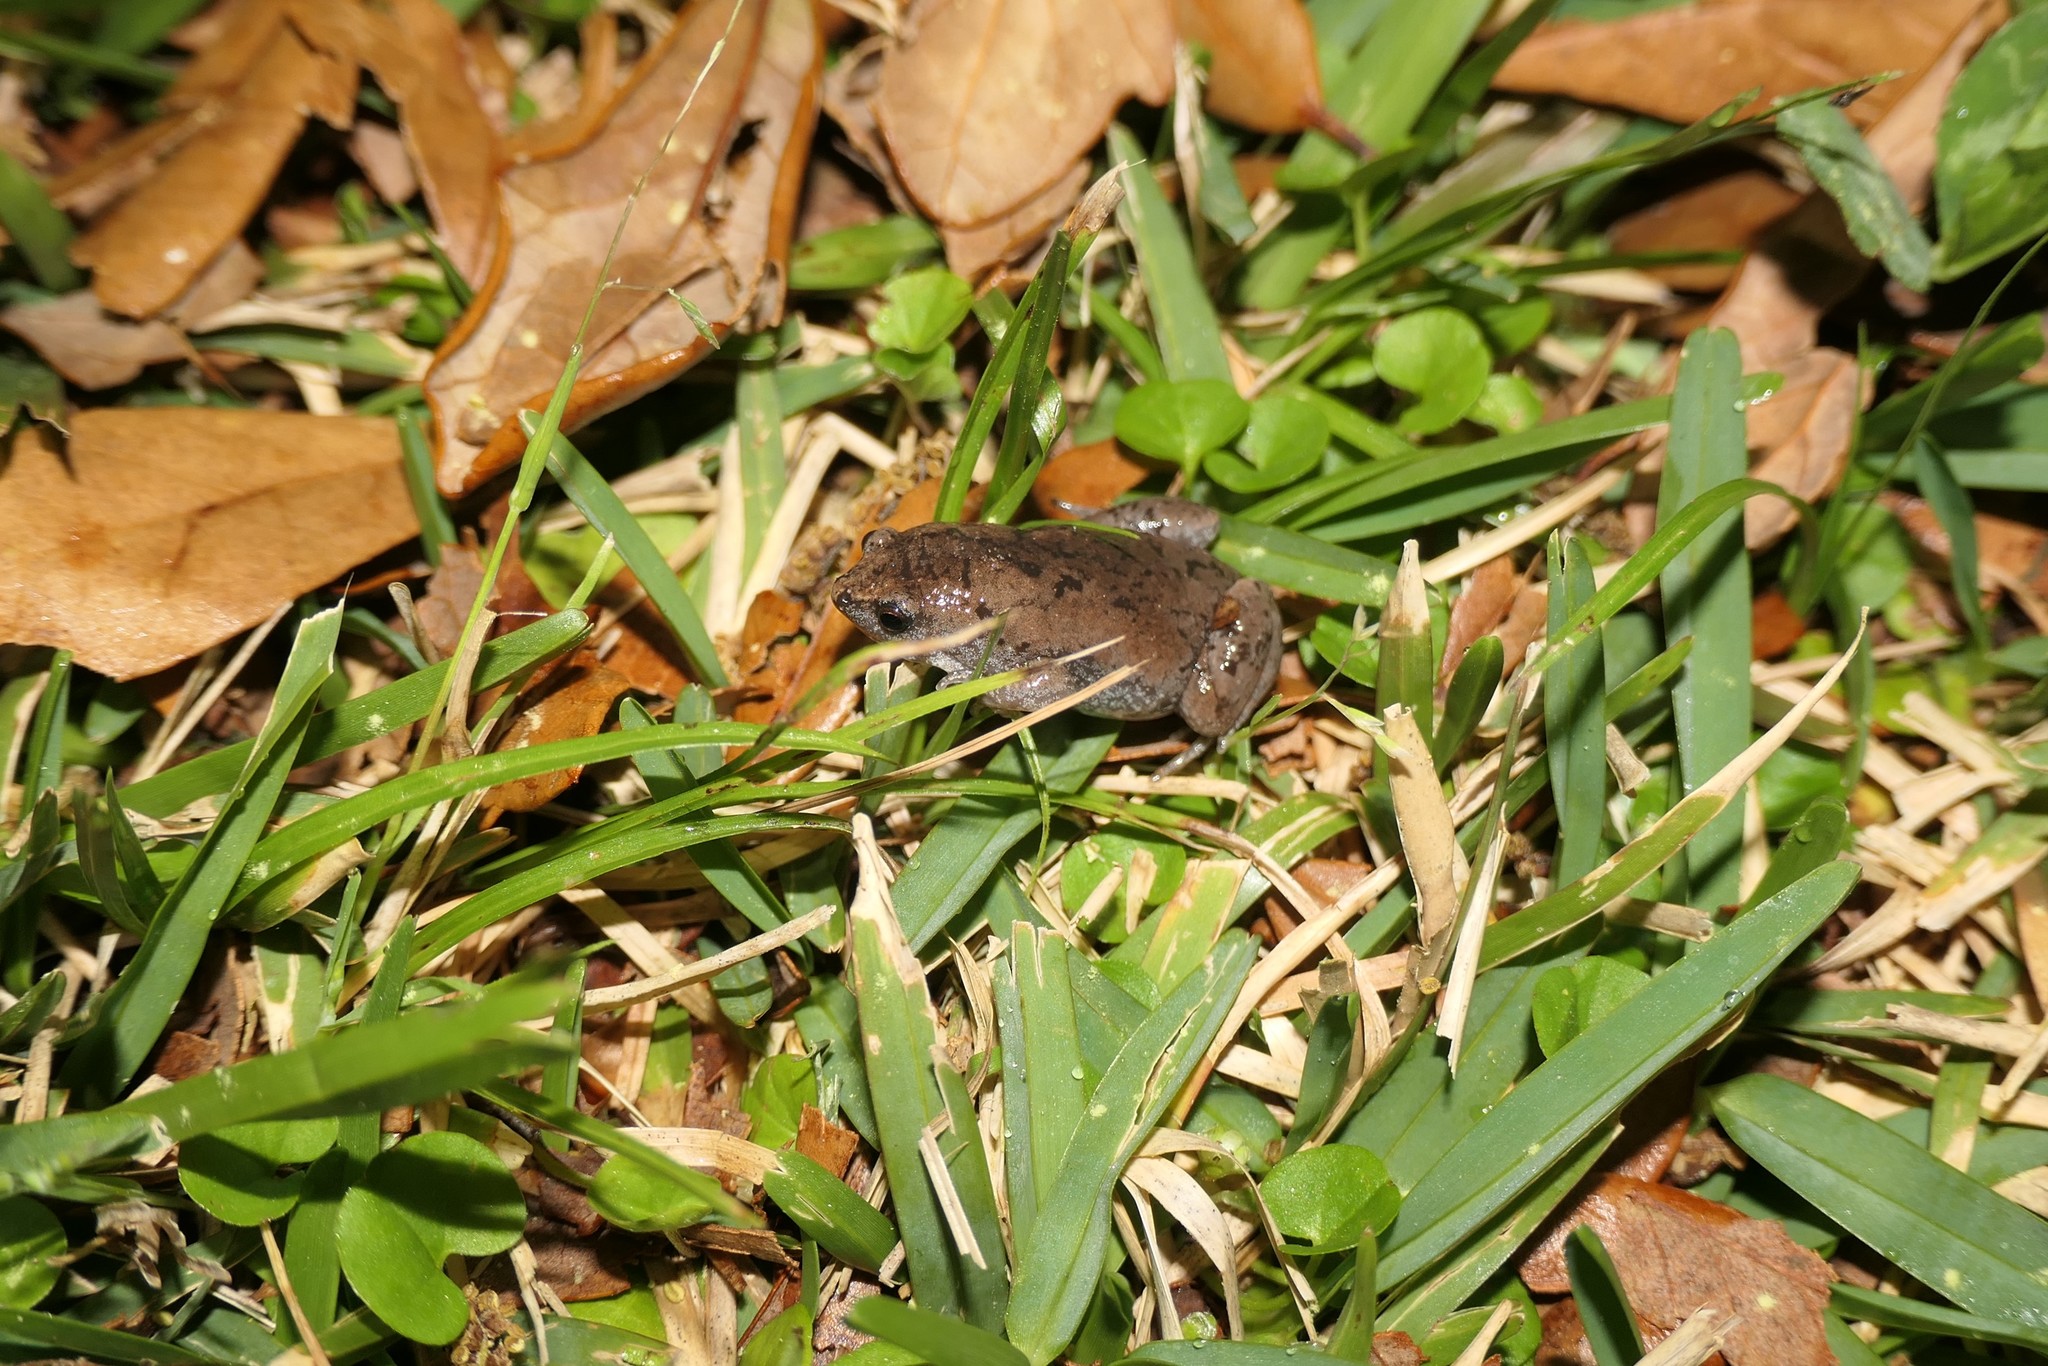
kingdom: Animalia
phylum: Chordata
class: Amphibia
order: Anura
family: Microhylidae
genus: Gastrophryne
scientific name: Gastrophryne carolinensis
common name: Eastern narrowmouth toad
